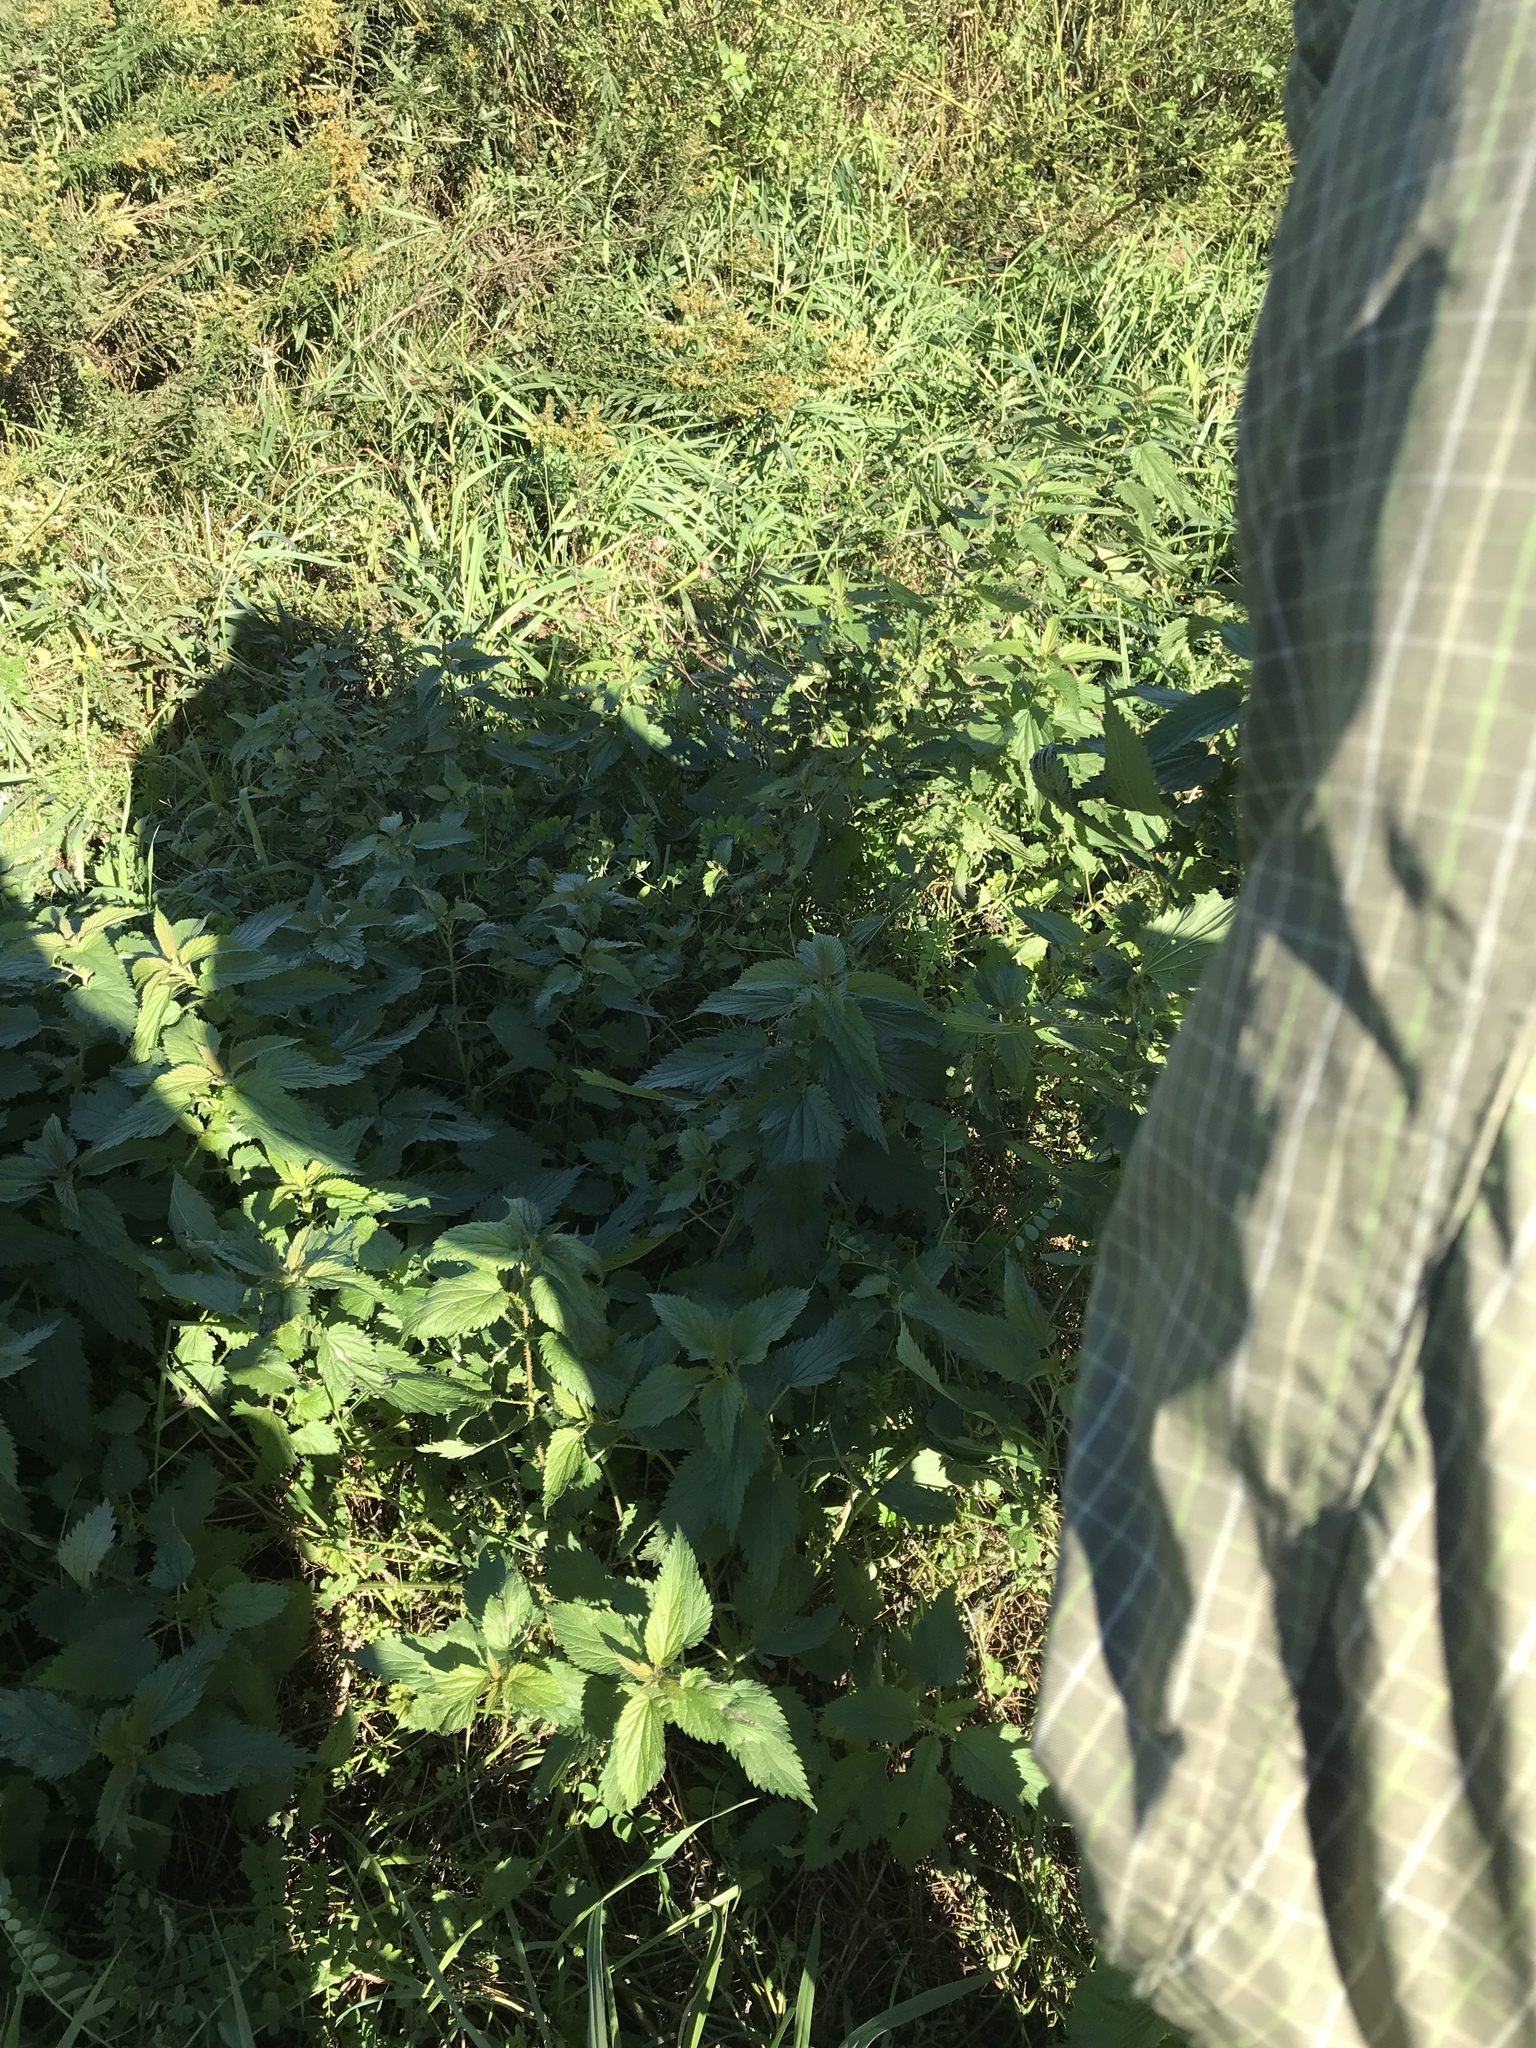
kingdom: Plantae
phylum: Tracheophyta
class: Magnoliopsida
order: Rosales
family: Urticaceae
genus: Urtica
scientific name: Urtica dioica
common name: Common nettle
